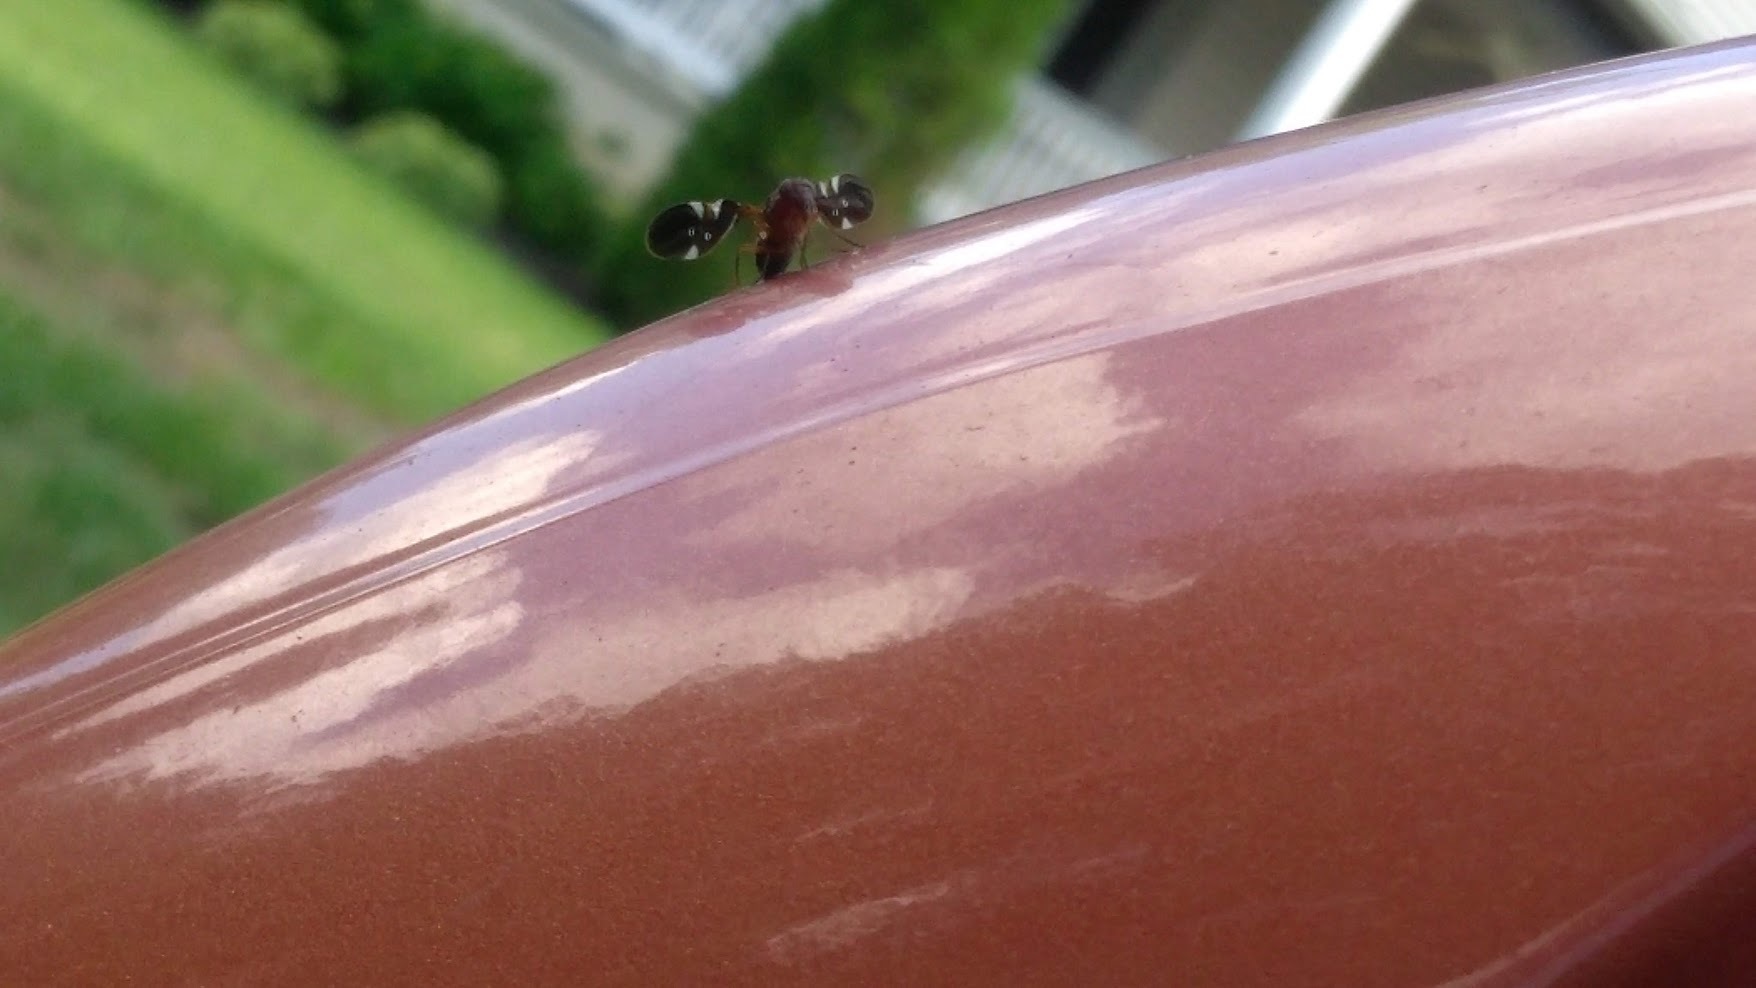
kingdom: Animalia
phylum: Arthropoda
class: Insecta
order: Diptera
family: Ulidiidae
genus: Delphinia
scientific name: Delphinia picta
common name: Common picture-winged fly
